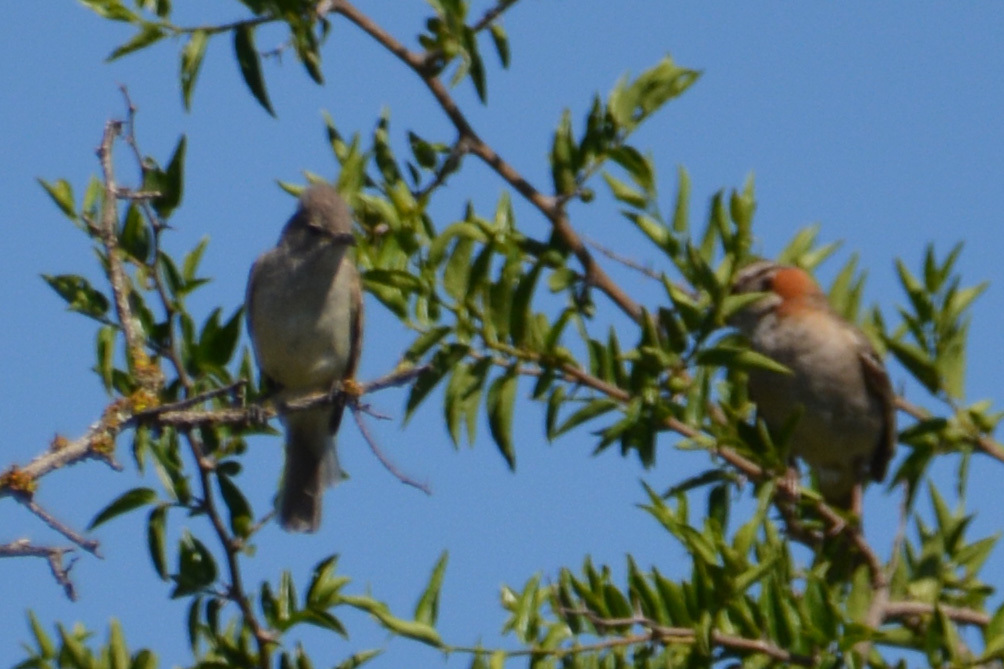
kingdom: Animalia
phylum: Chordata
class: Aves
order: Passeriformes
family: Tyrannidae
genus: Camptostoma
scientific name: Camptostoma obsoletum
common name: Southern beardless-tyrannulet
